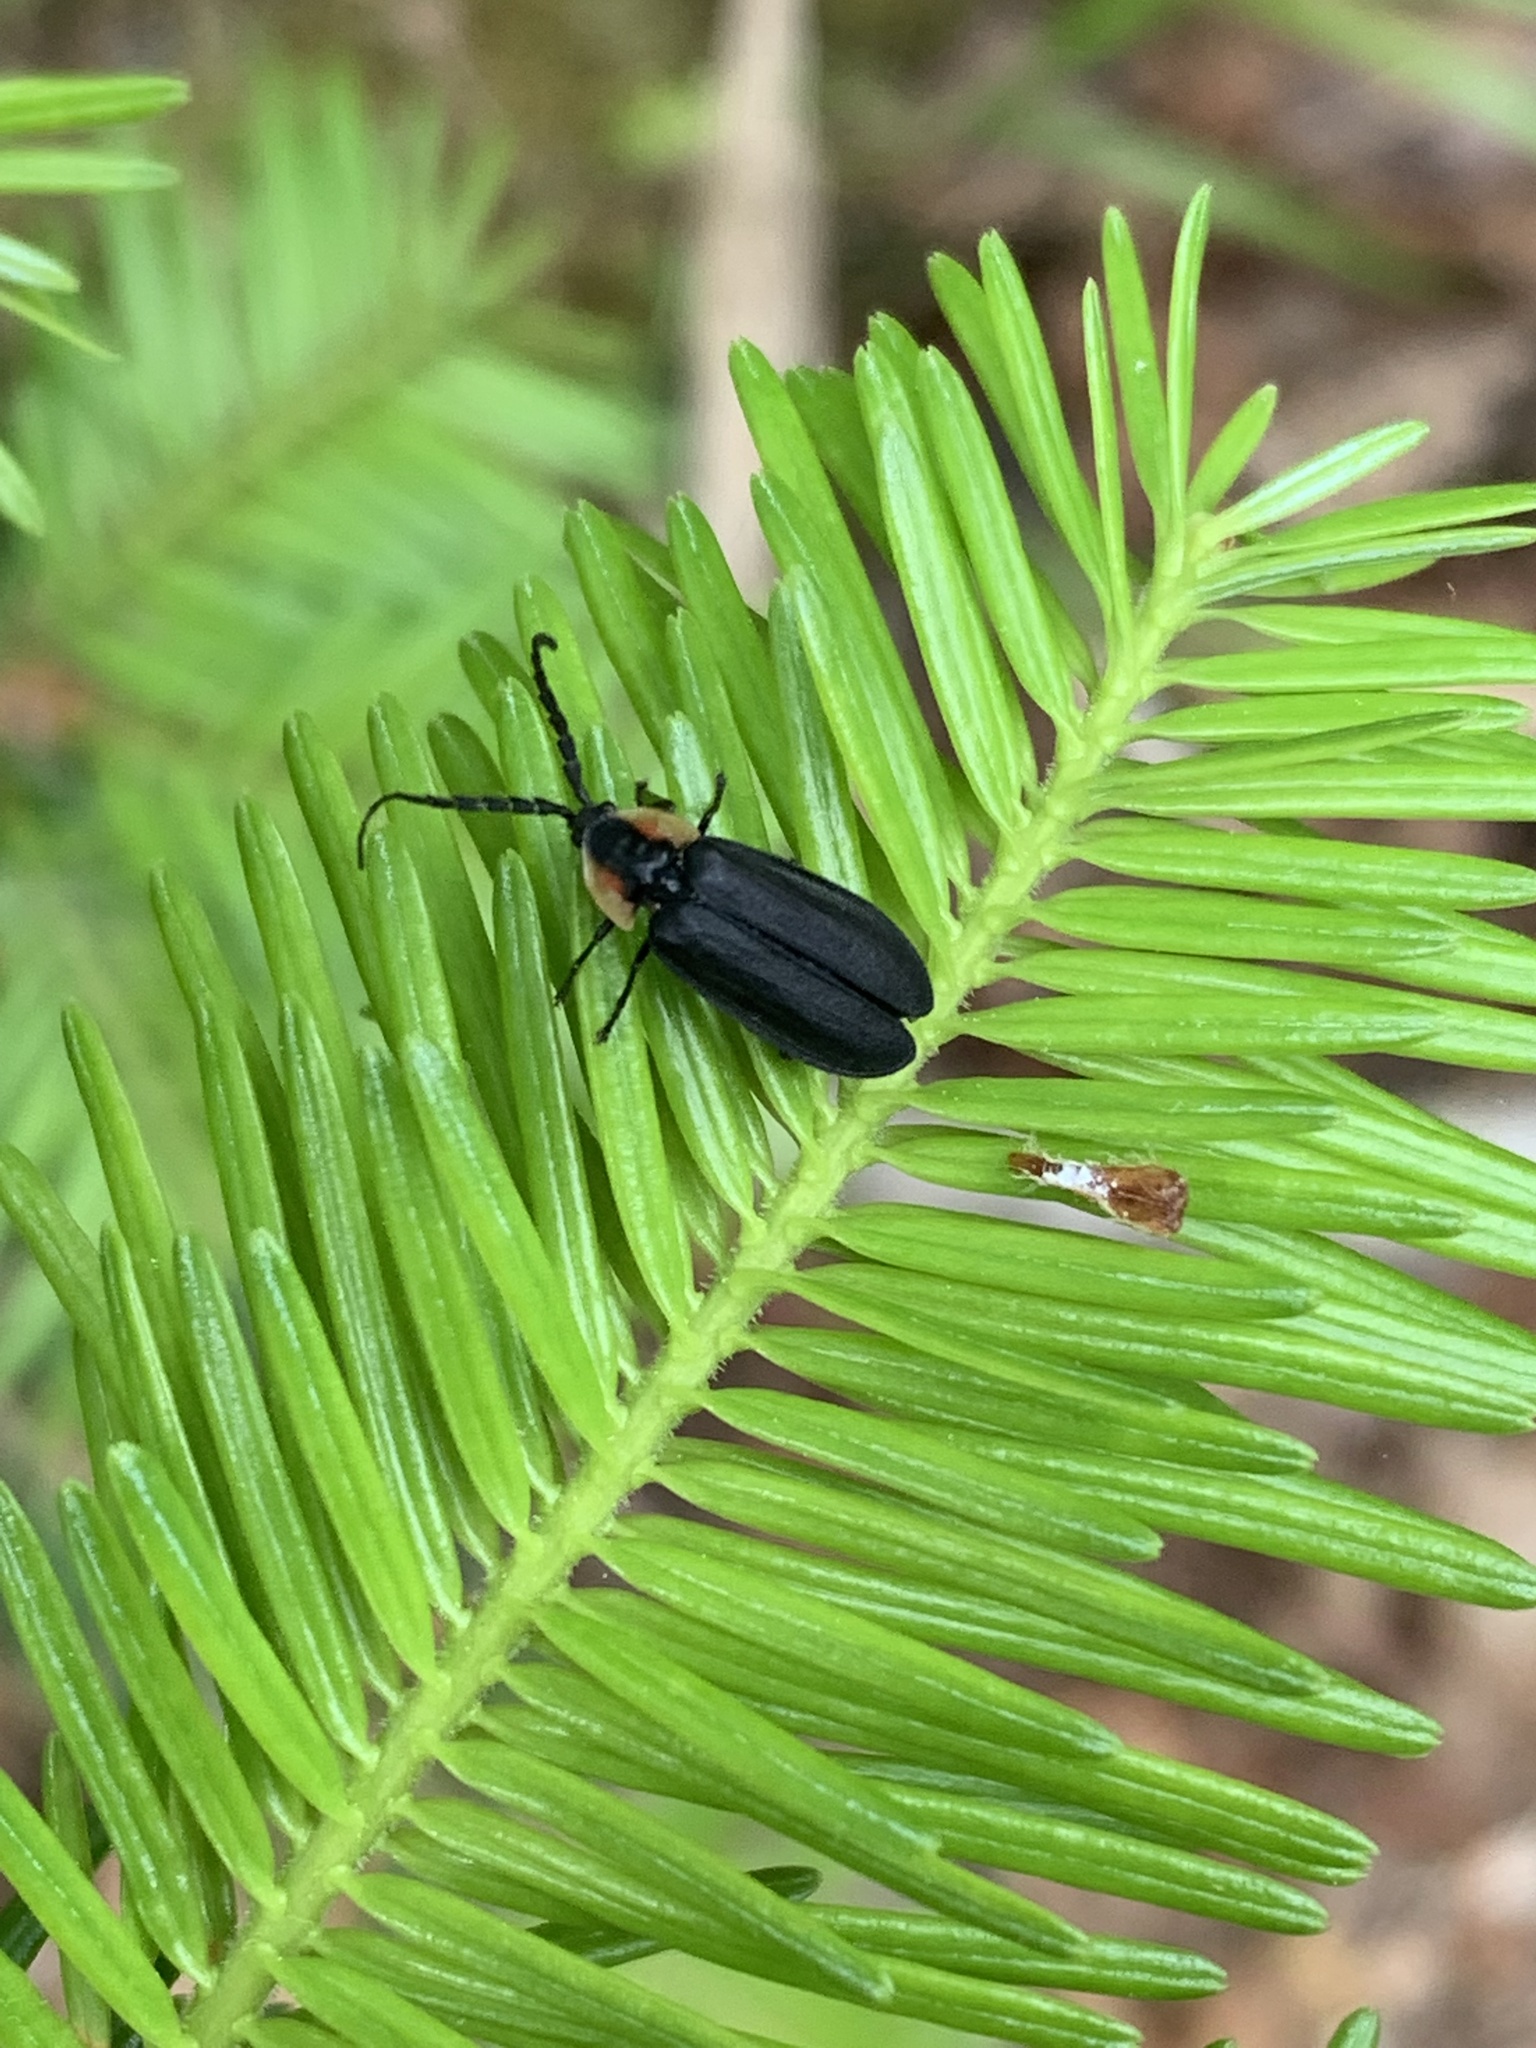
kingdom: Animalia
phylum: Arthropoda
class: Insecta
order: Coleoptera
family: Lampyridae
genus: Lucidota
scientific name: Lucidota atra
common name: Black firefly
